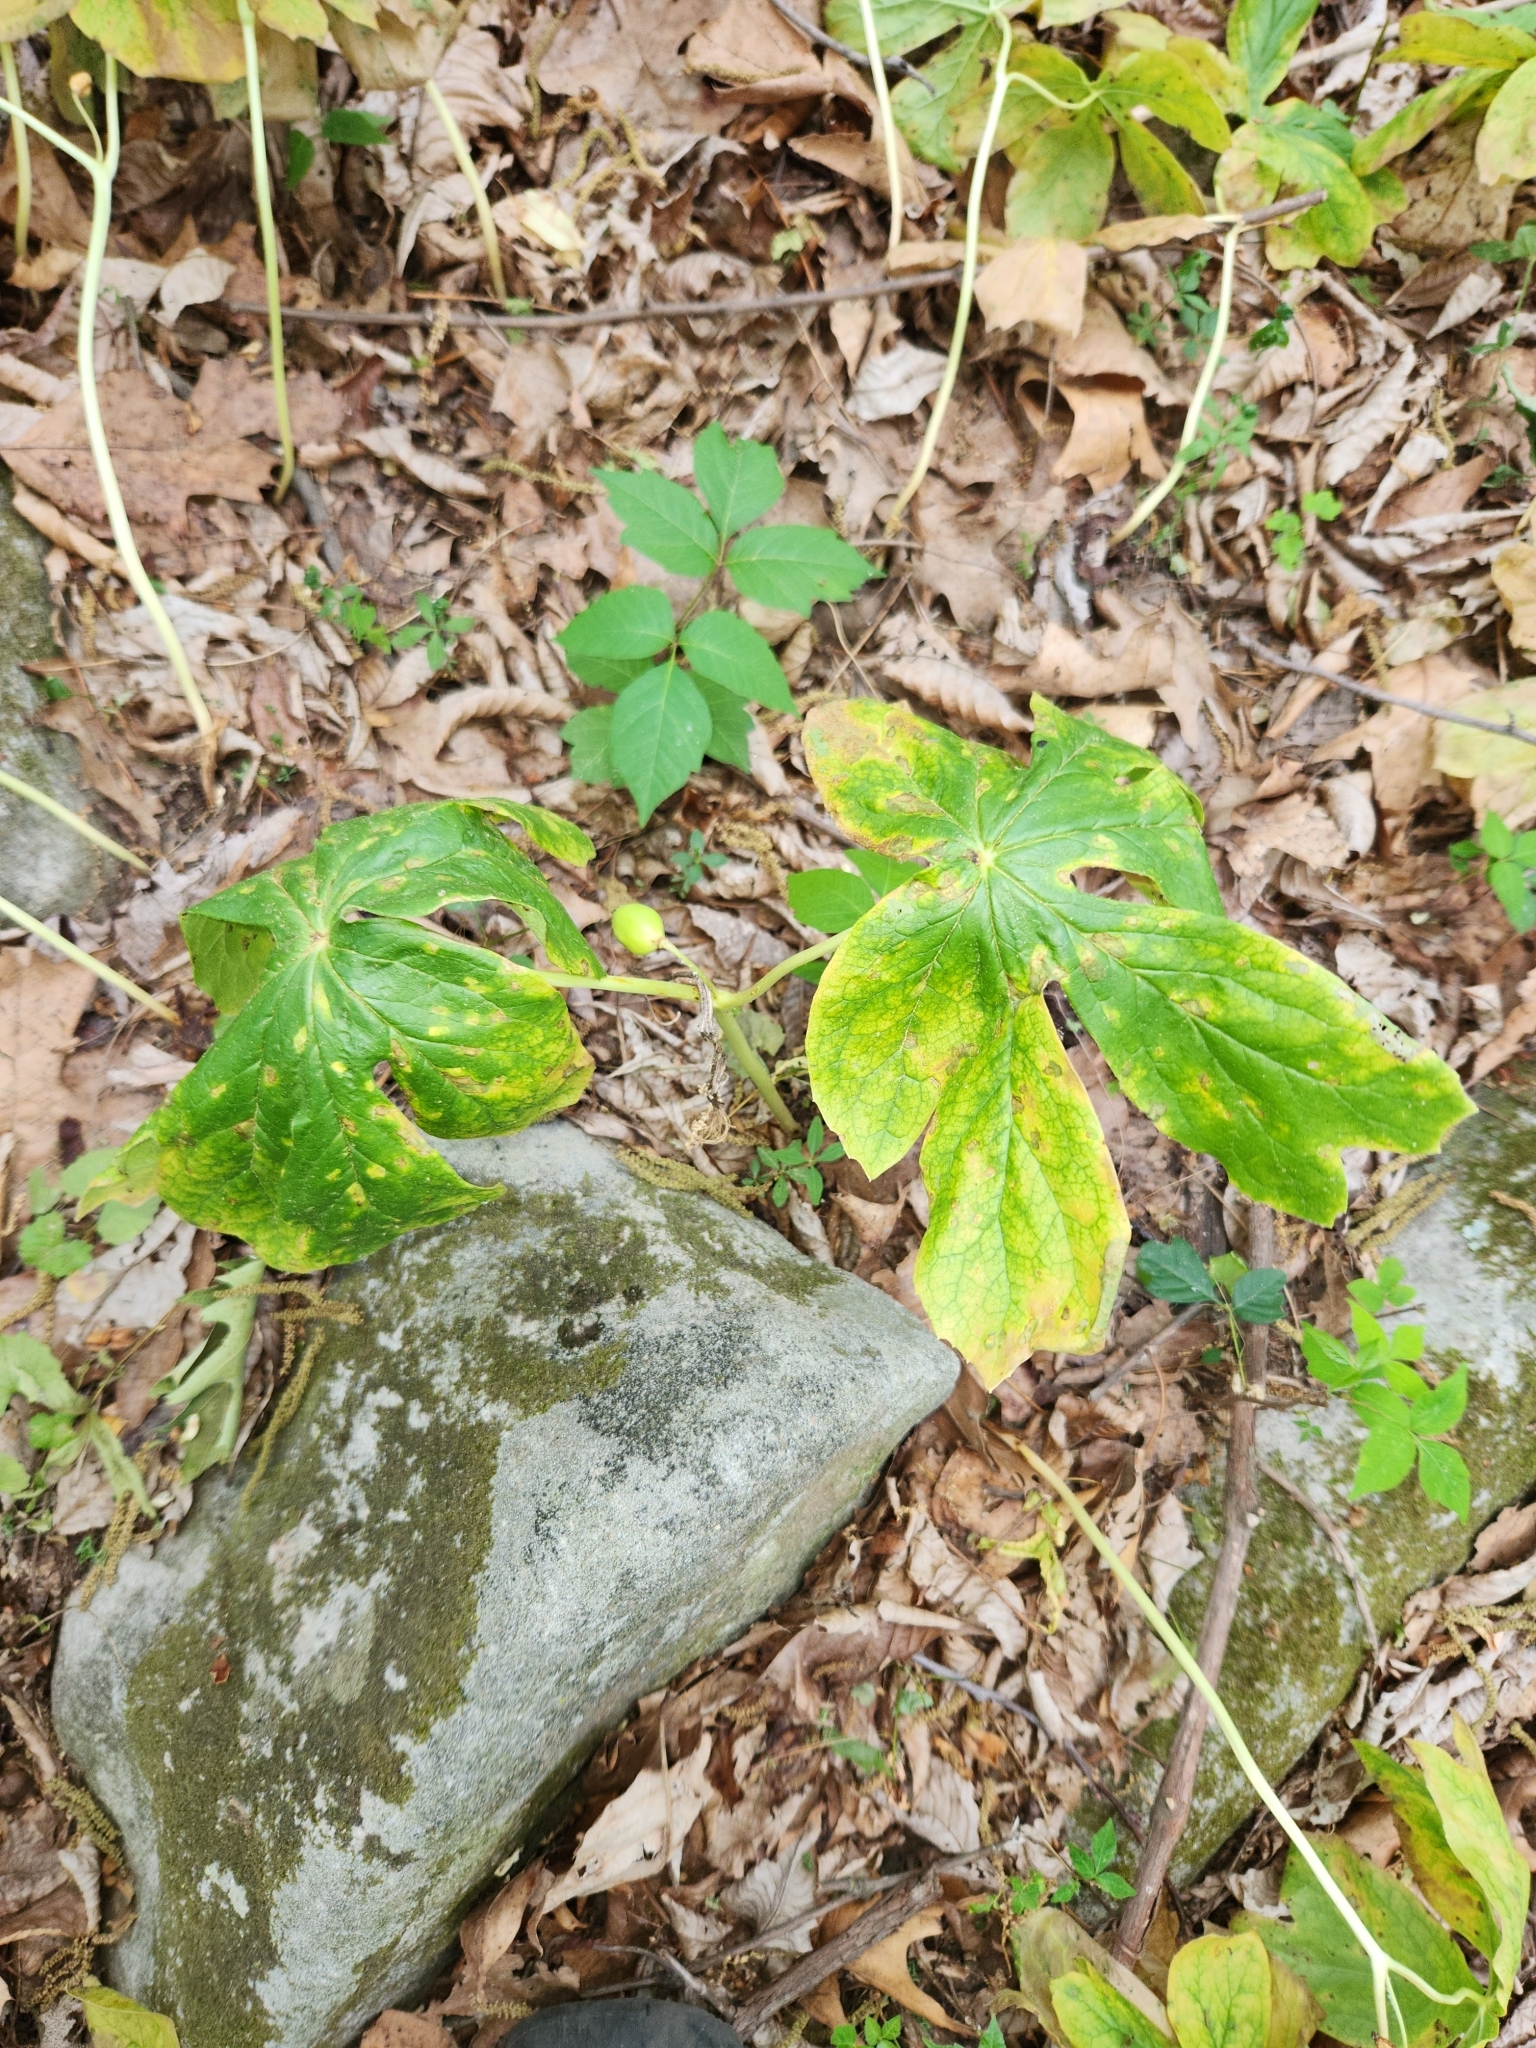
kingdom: Plantae
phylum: Tracheophyta
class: Magnoliopsida
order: Ranunculales
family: Berberidaceae
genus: Podophyllum
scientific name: Podophyllum peltatum
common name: Wild mandrake
